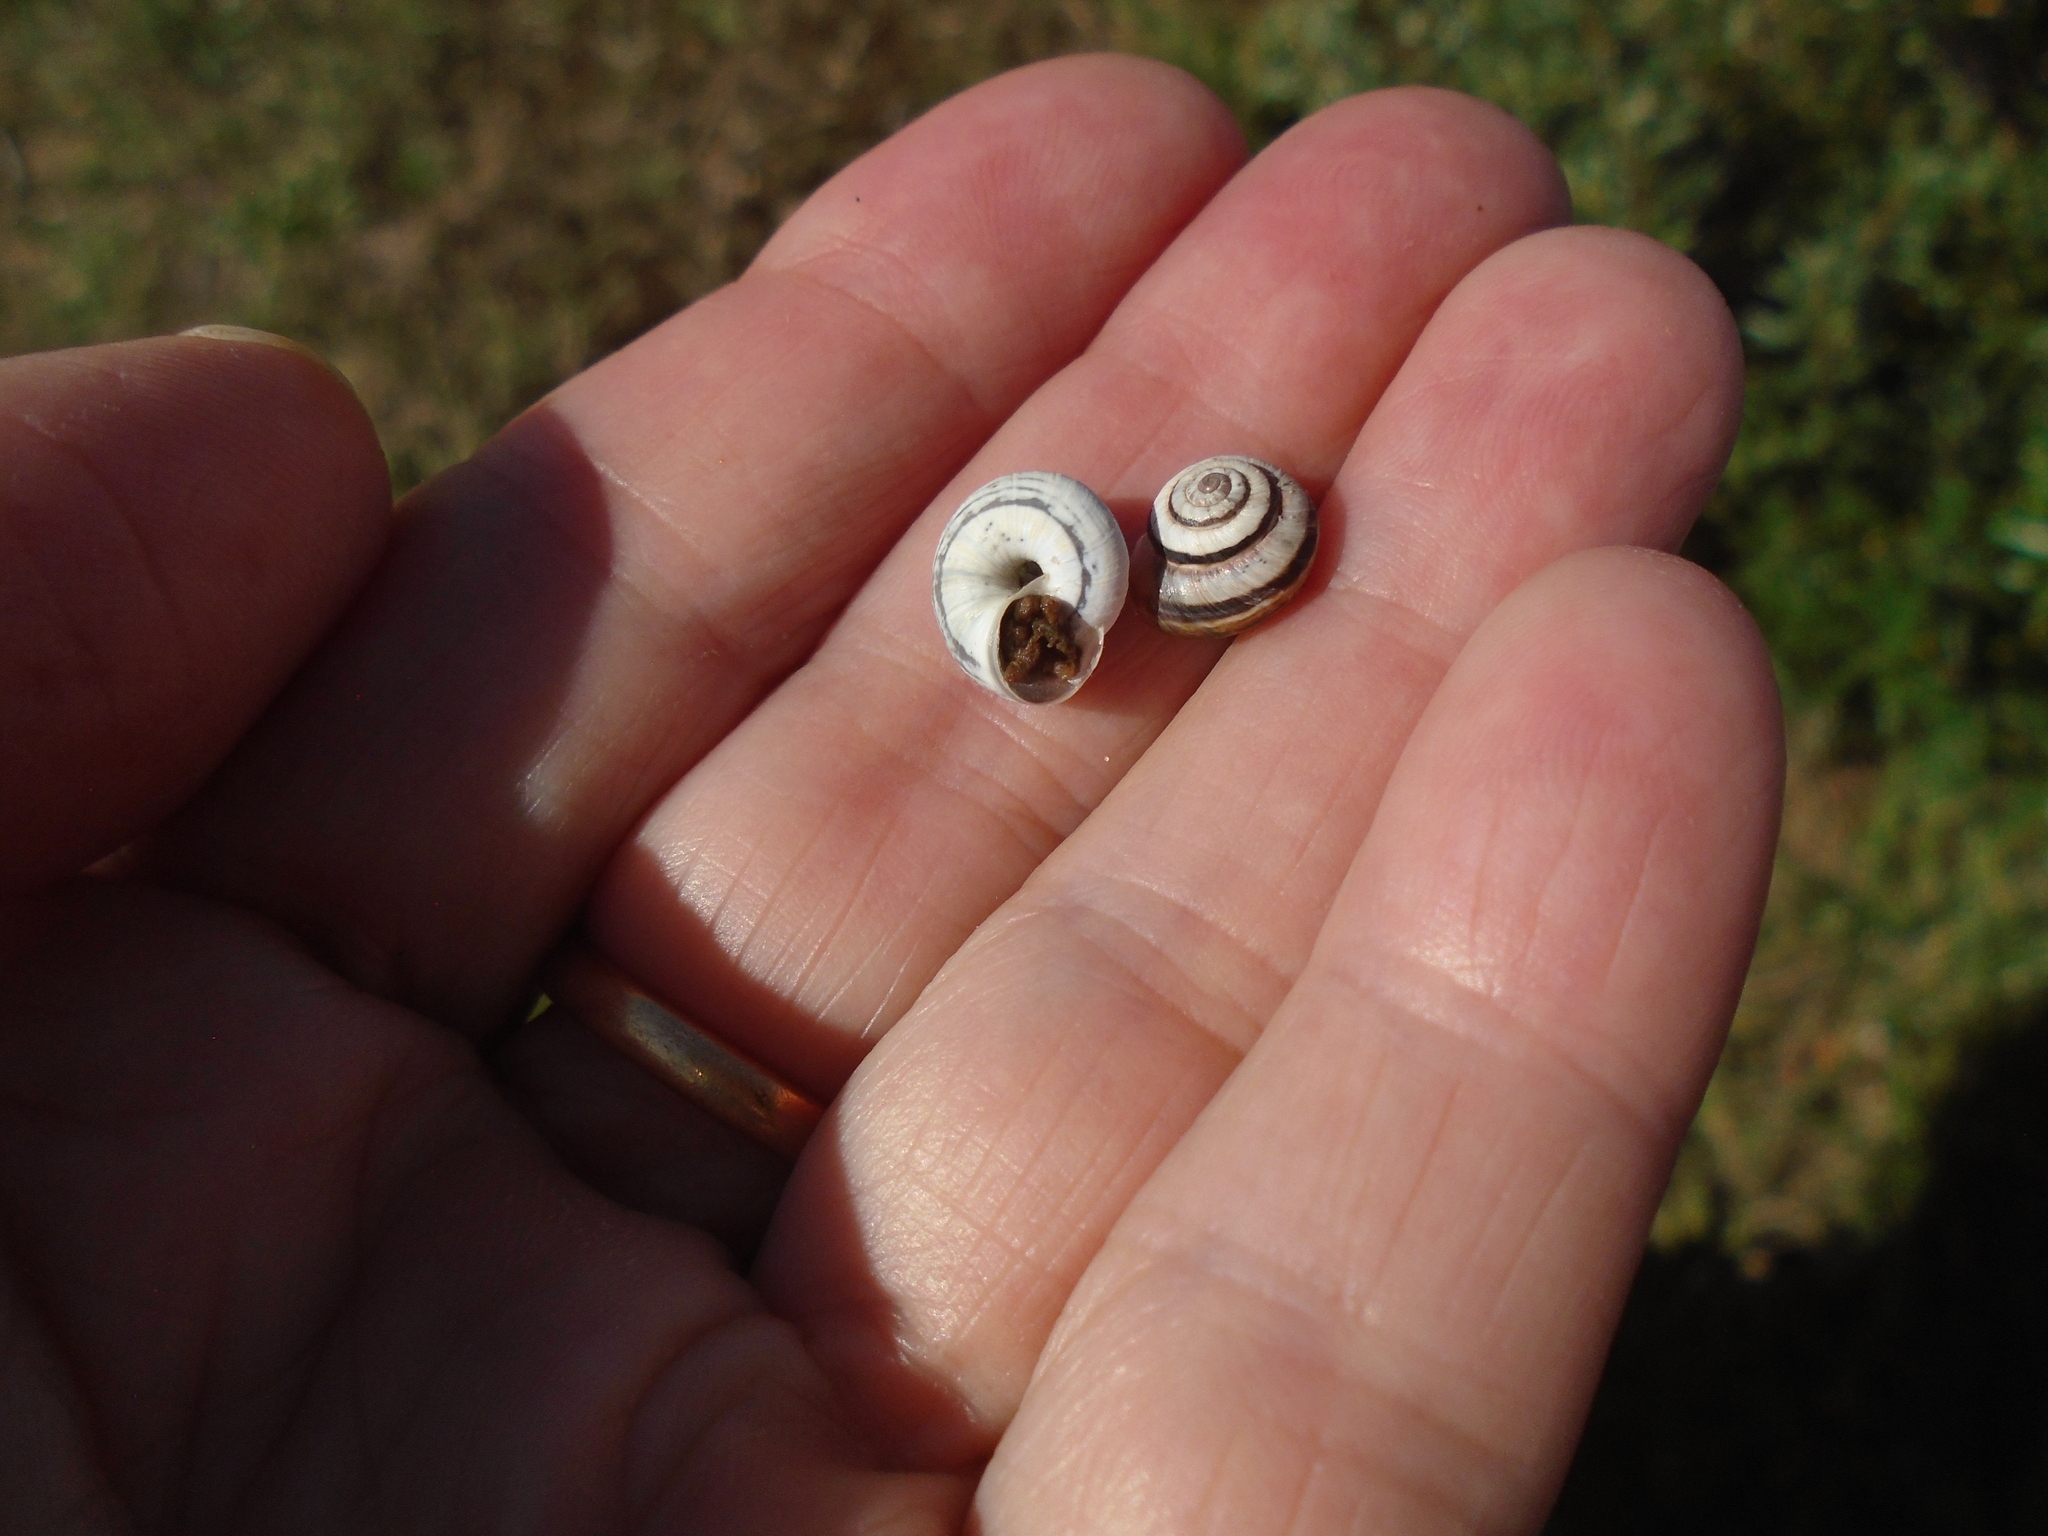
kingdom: Animalia
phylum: Mollusca
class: Gastropoda
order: Stylommatophora
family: Geomitridae
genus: Cernuella
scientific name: Cernuella virgata
